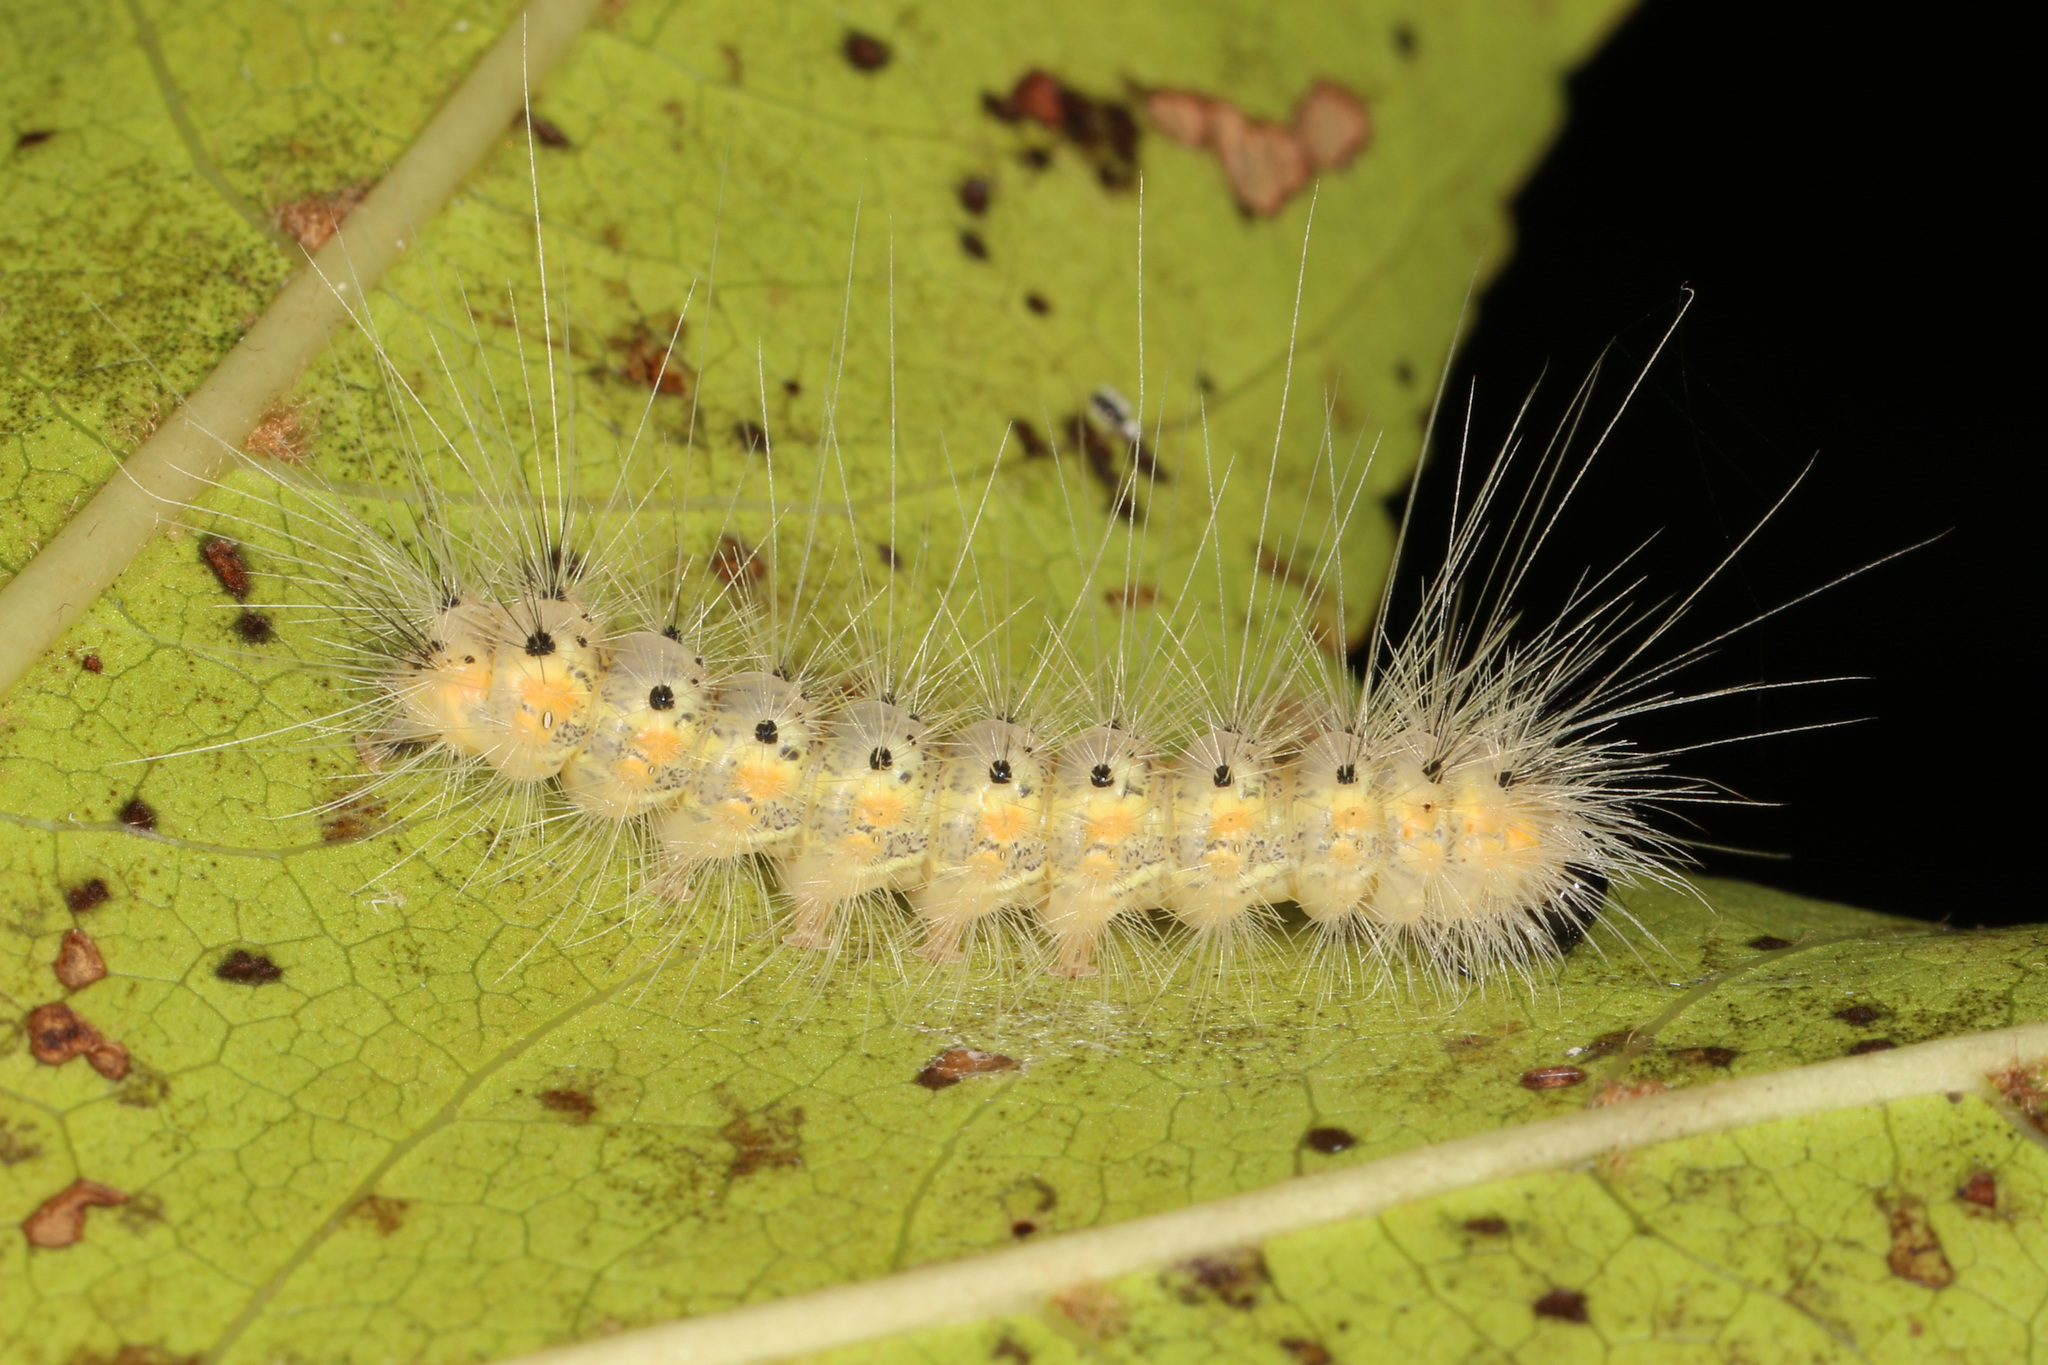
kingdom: Animalia
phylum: Arthropoda
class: Insecta
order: Lepidoptera
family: Erebidae
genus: Hyphantria
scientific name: Hyphantria cunea
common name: American white moth
